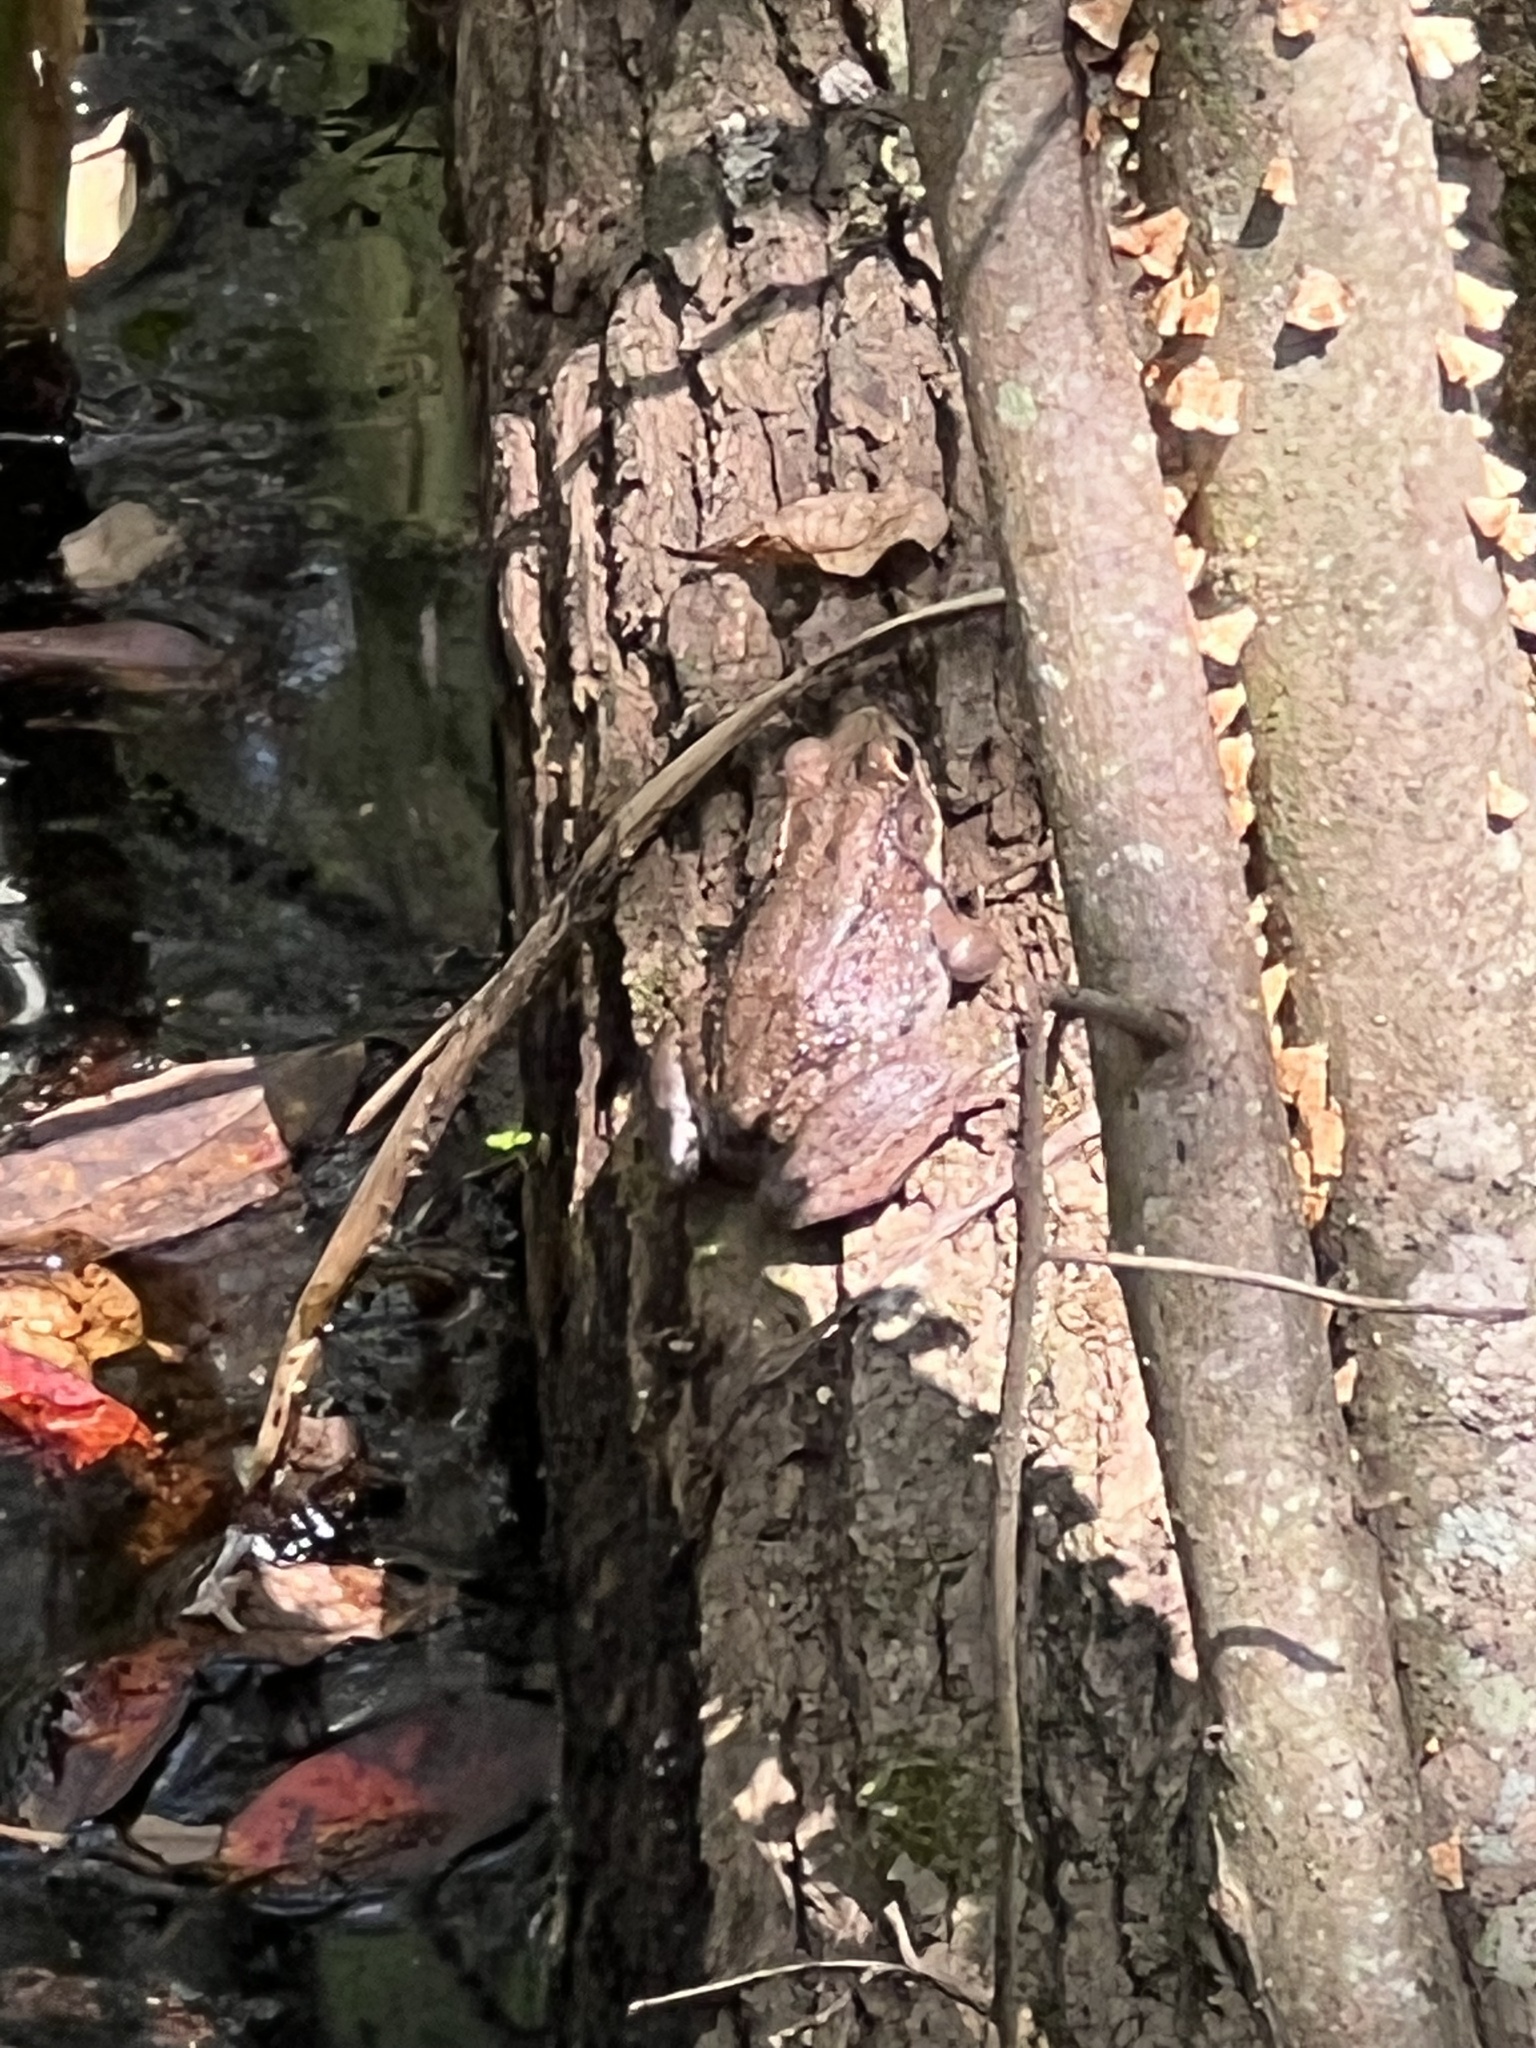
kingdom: Animalia
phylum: Chordata
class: Amphibia
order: Anura
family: Ranidae
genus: Lithobates
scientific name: Lithobates clamitans
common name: Green frog
